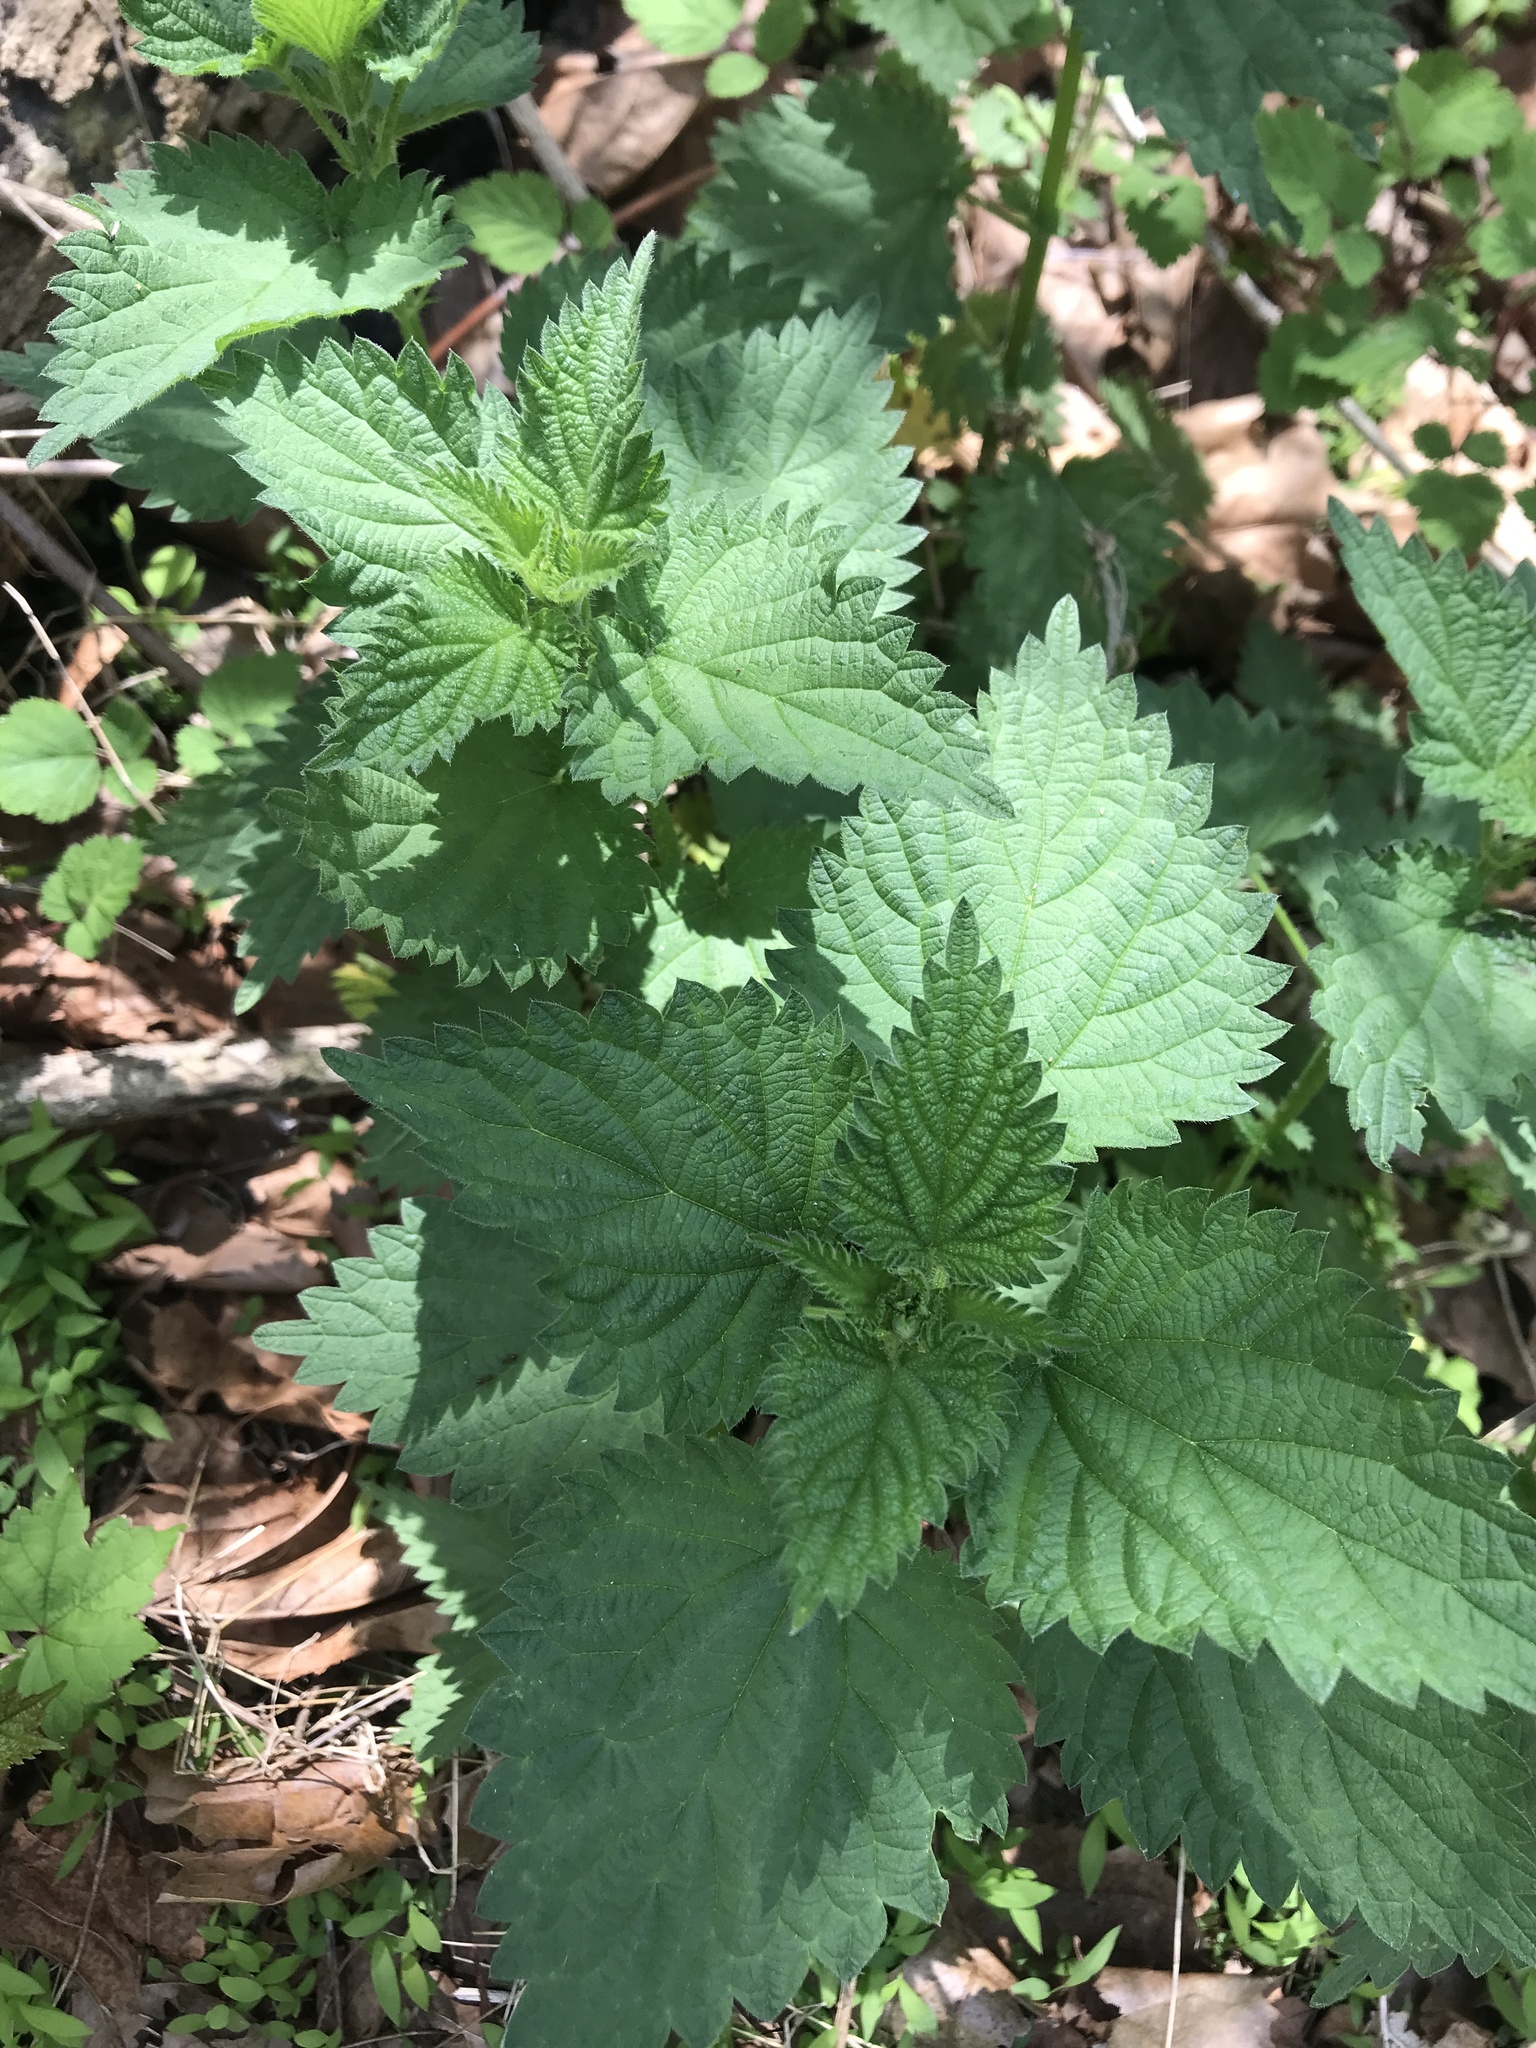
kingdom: Plantae
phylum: Tracheophyta
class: Magnoliopsida
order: Rosales
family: Urticaceae
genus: Urtica
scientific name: Urtica dioica
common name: Common nettle
